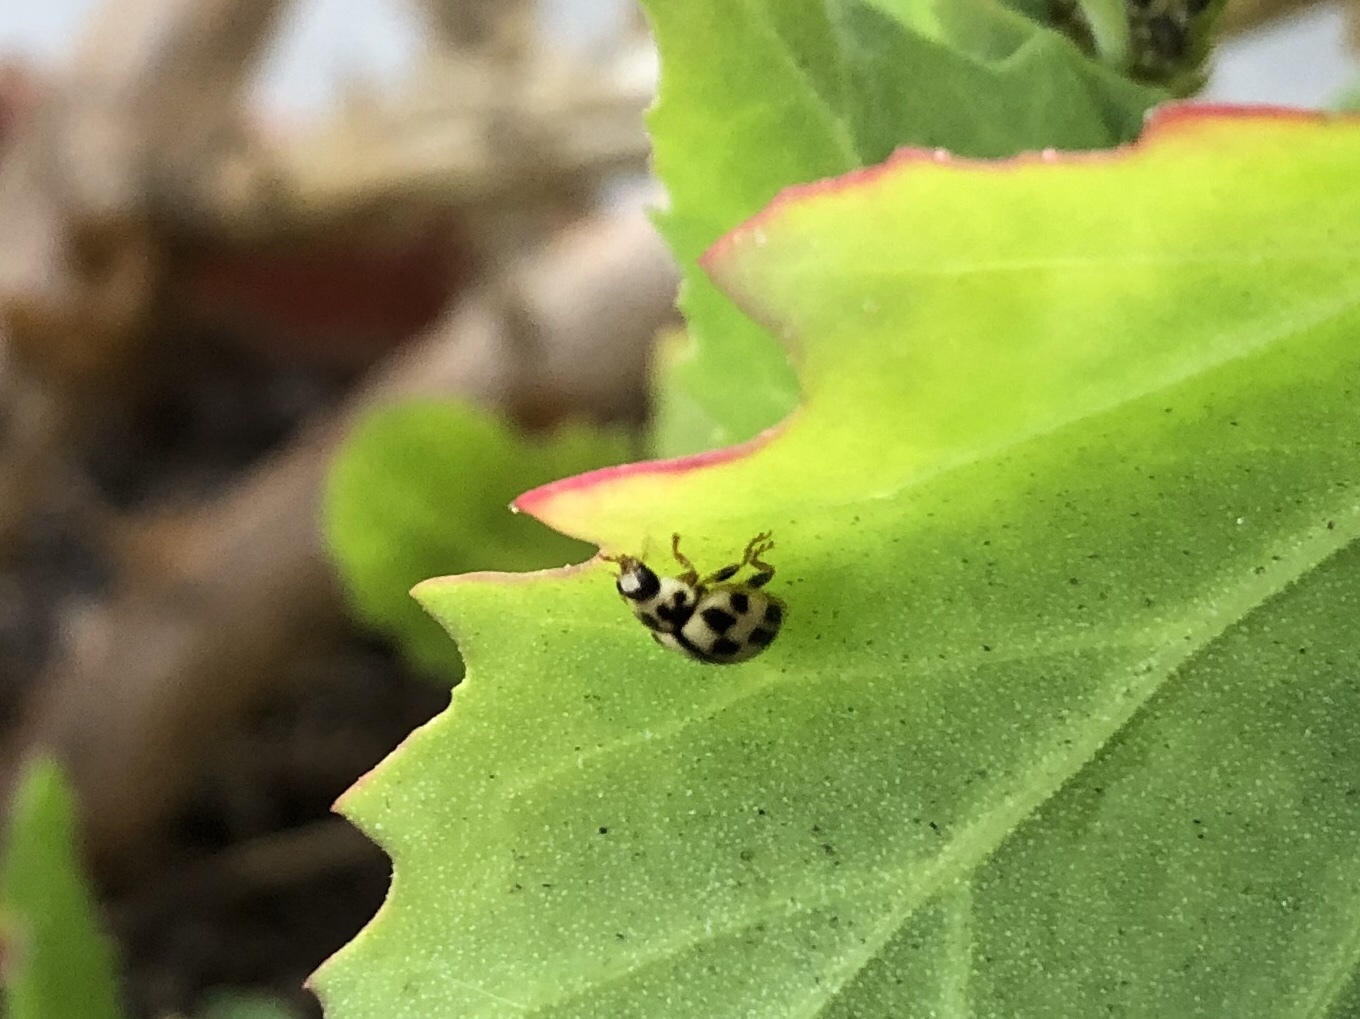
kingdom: Animalia
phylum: Arthropoda
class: Insecta
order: Coleoptera
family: Coccinellidae
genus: Propylaea
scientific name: Propylaea quatuordecimpunctata
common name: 14-spotted ladybird beetle
